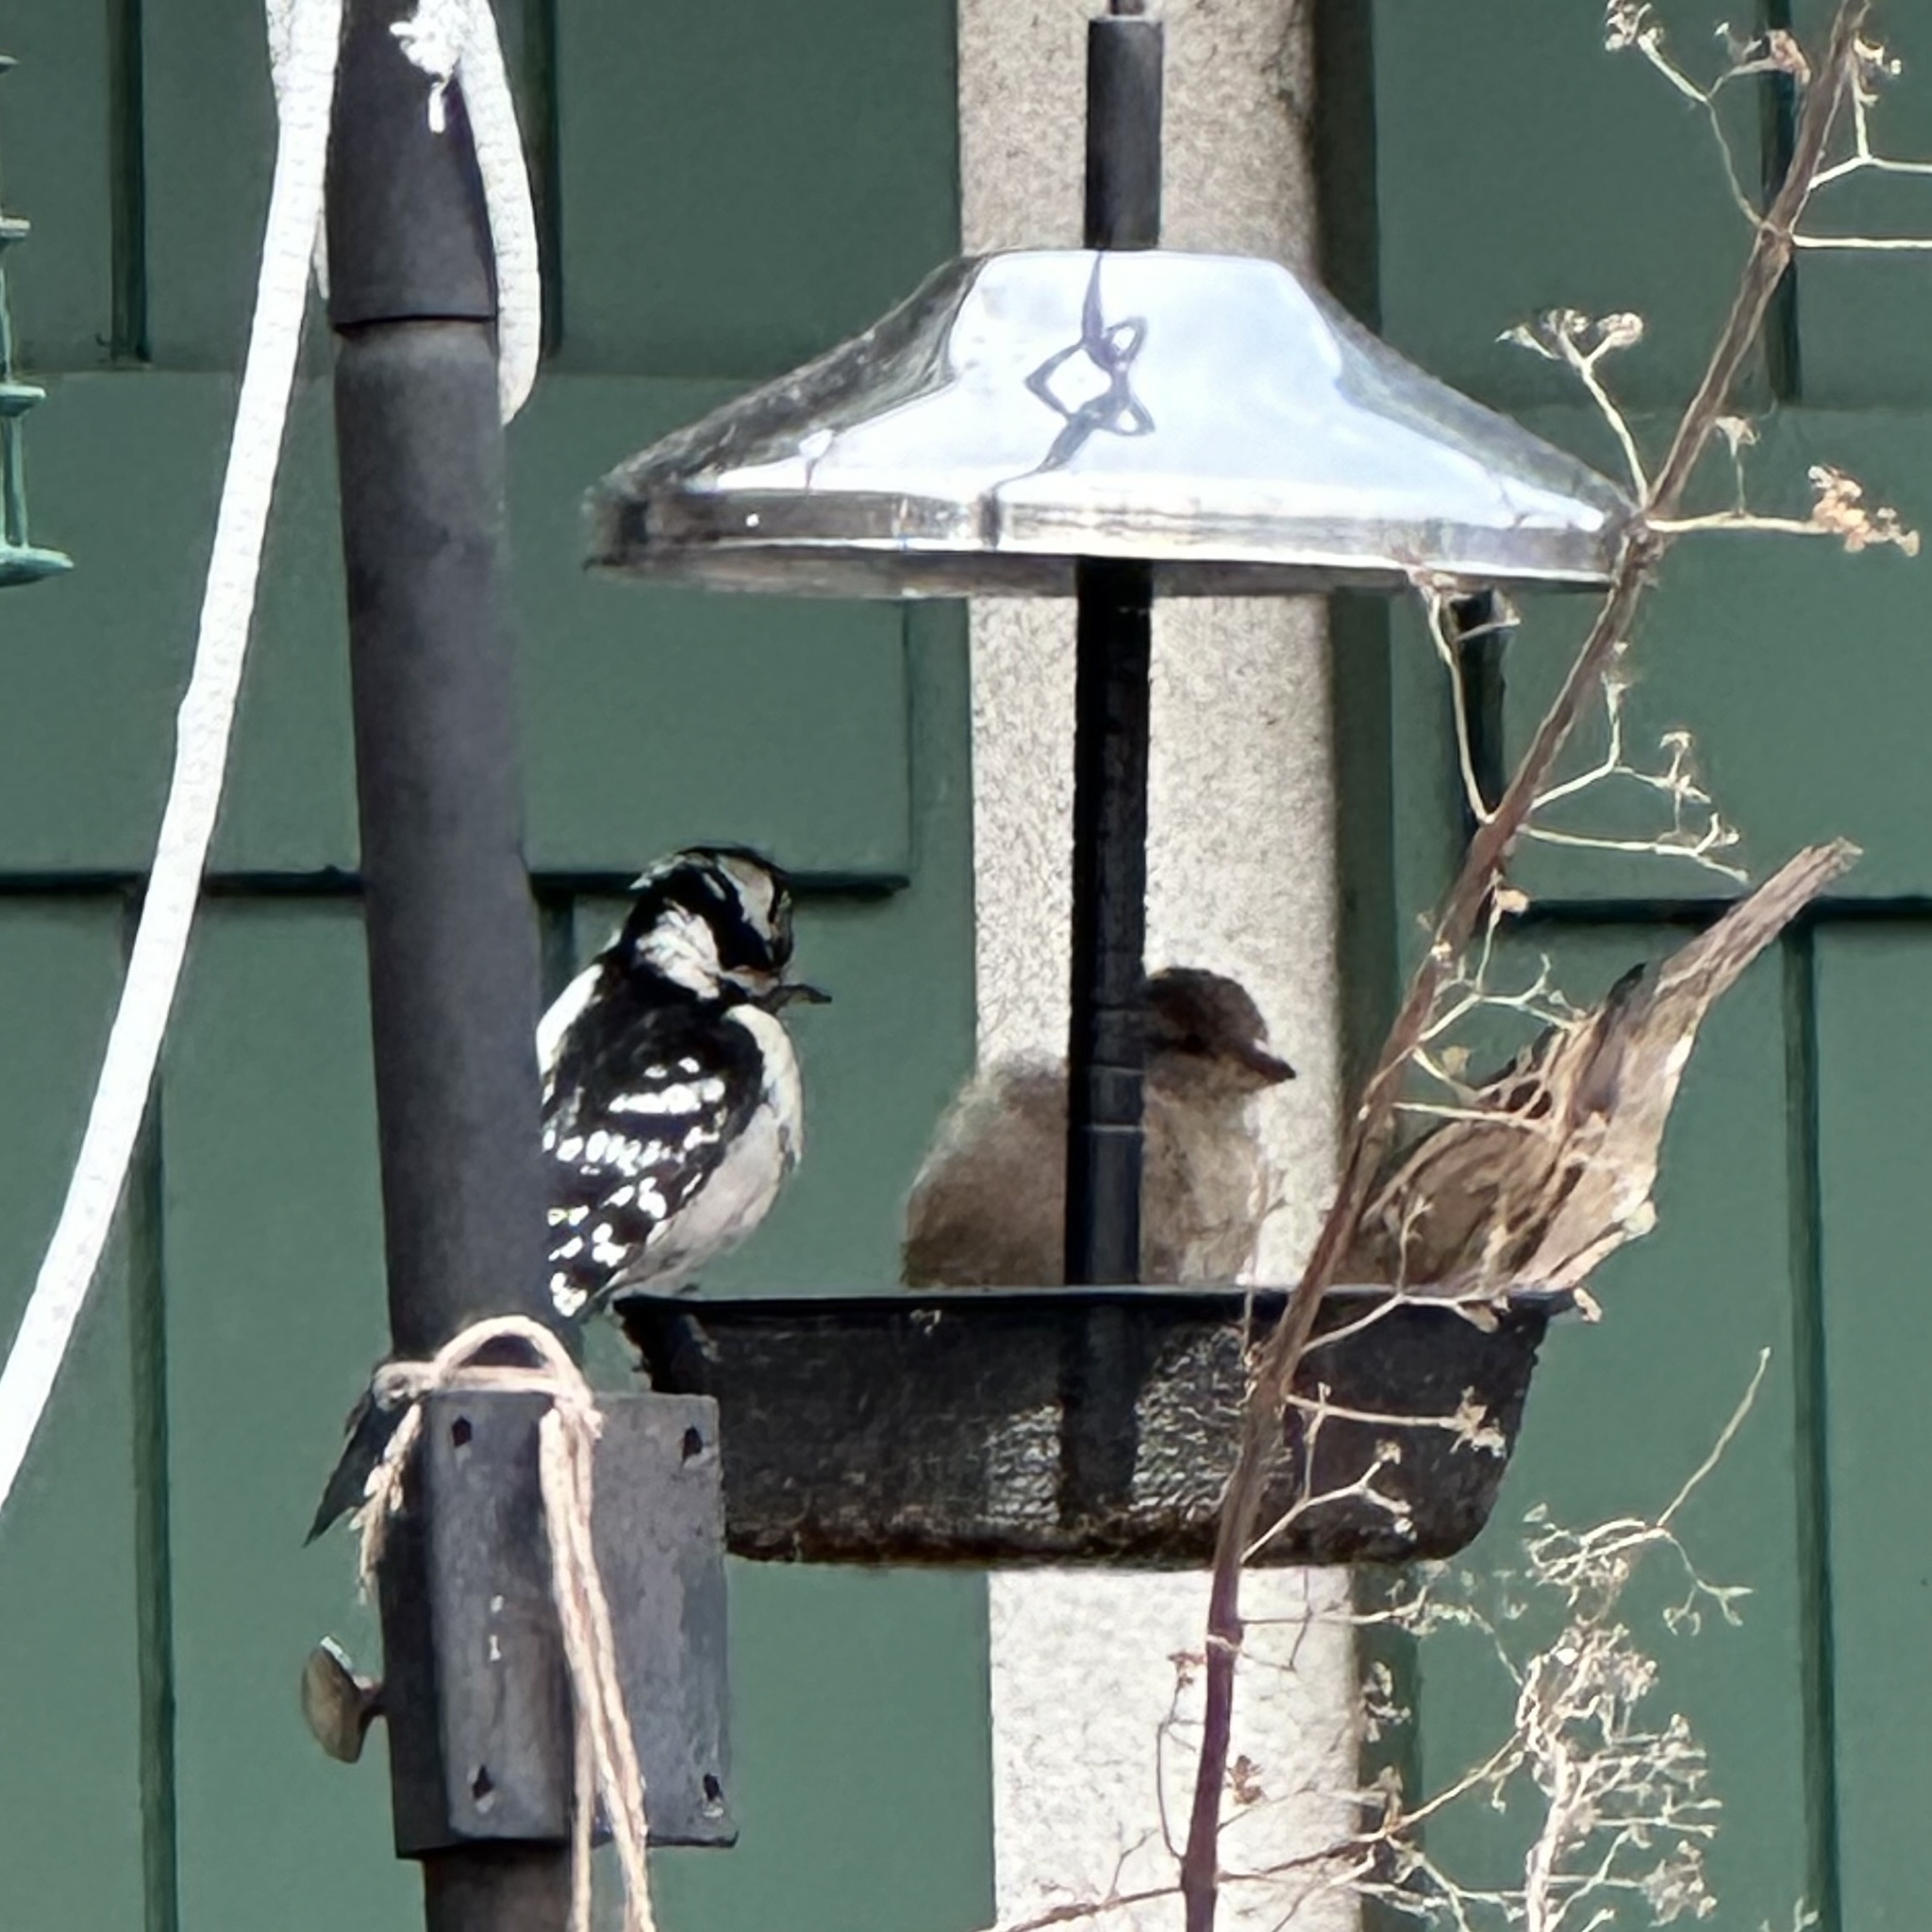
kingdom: Animalia
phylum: Chordata
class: Aves
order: Piciformes
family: Picidae
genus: Dryobates
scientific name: Dryobates pubescens
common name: Downy woodpecker
